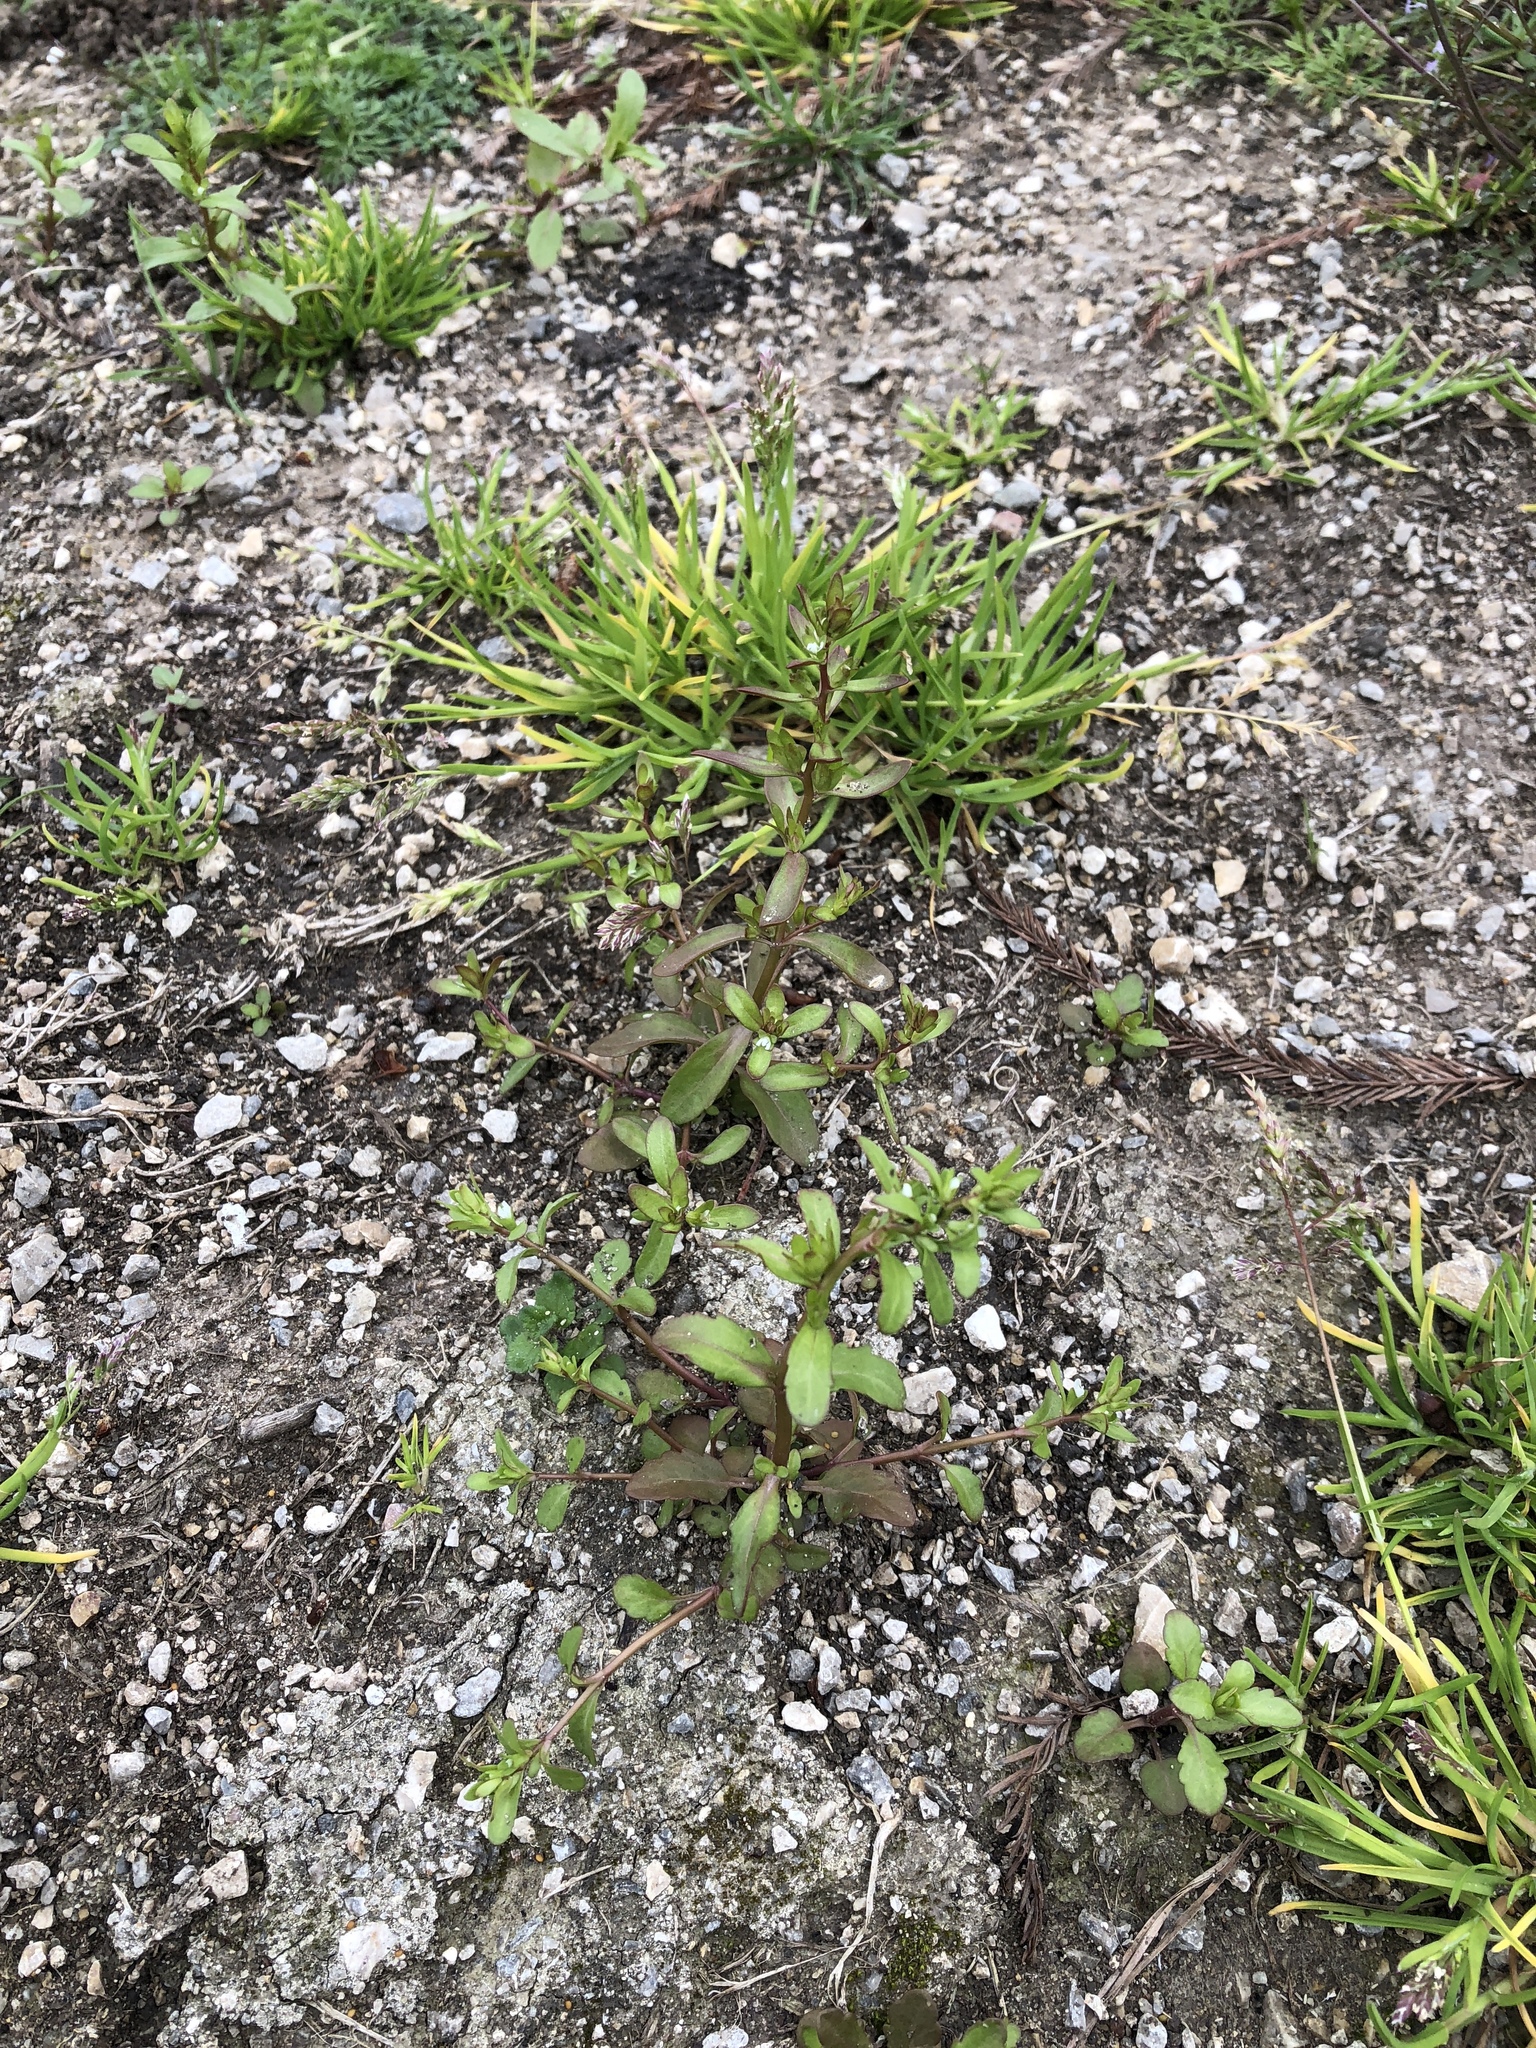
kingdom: Plantae
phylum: Tracheophyta
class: Magnoliopsida
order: Lamiales
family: Plantaginaceae
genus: Veronica
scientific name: Veronica peregrina
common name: Neckweed
